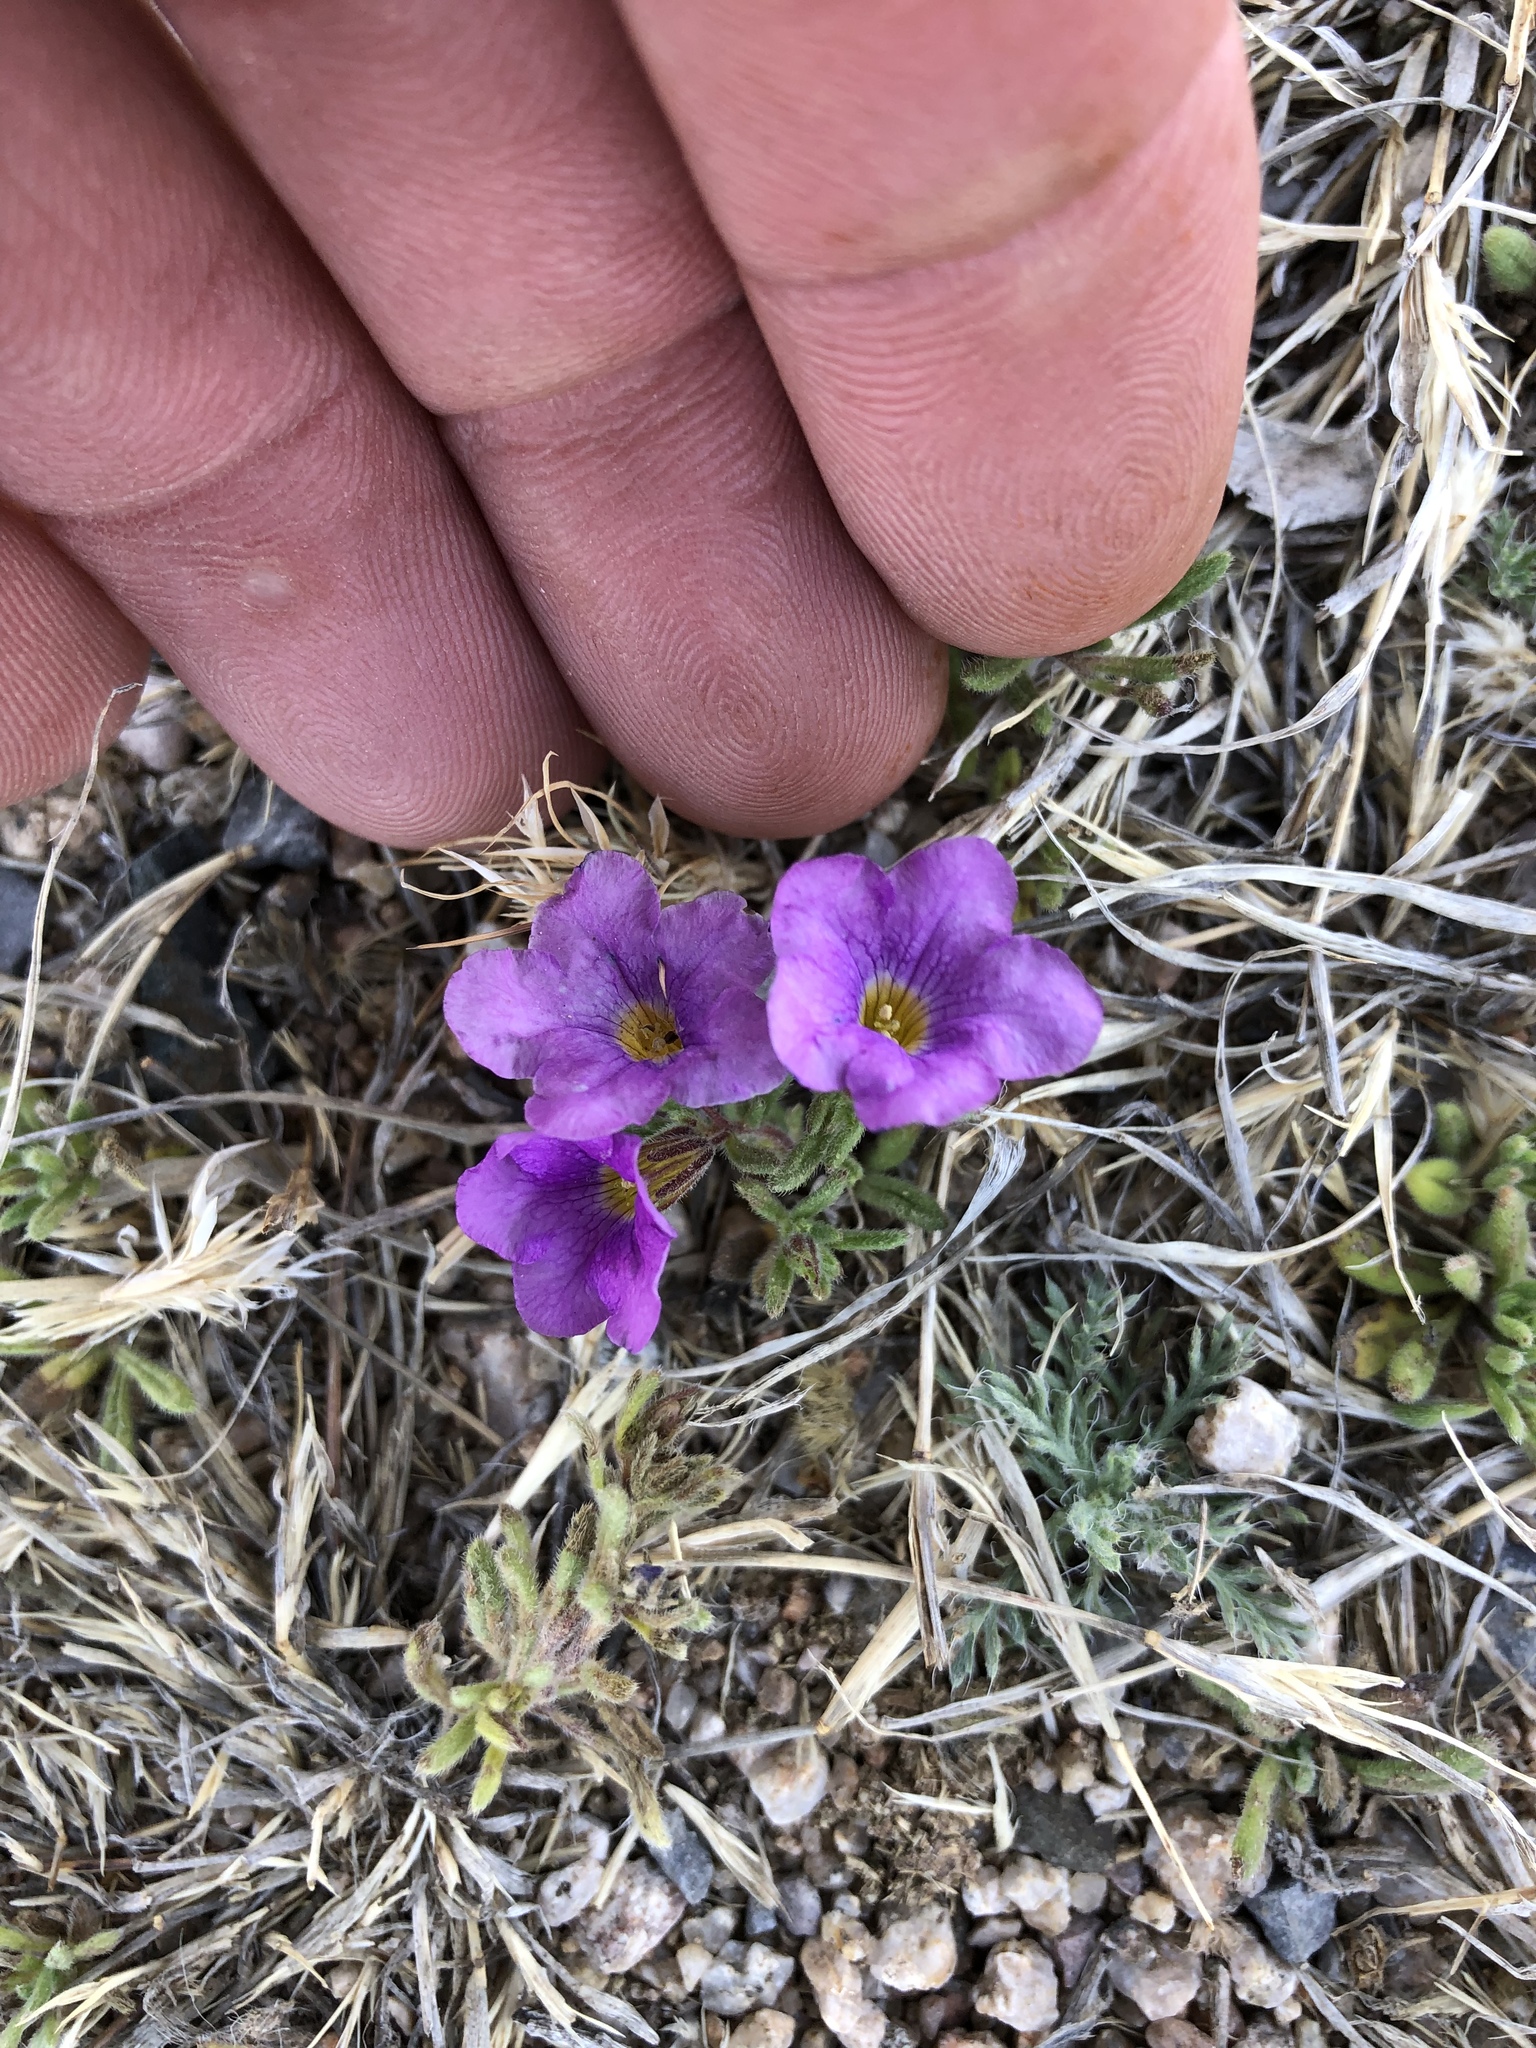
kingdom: Plantae
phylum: Tracheophyta
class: Magnoliopsida
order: Boraginales
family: Namaceae
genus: Nama
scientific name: Nama hispida
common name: Bristly nama
